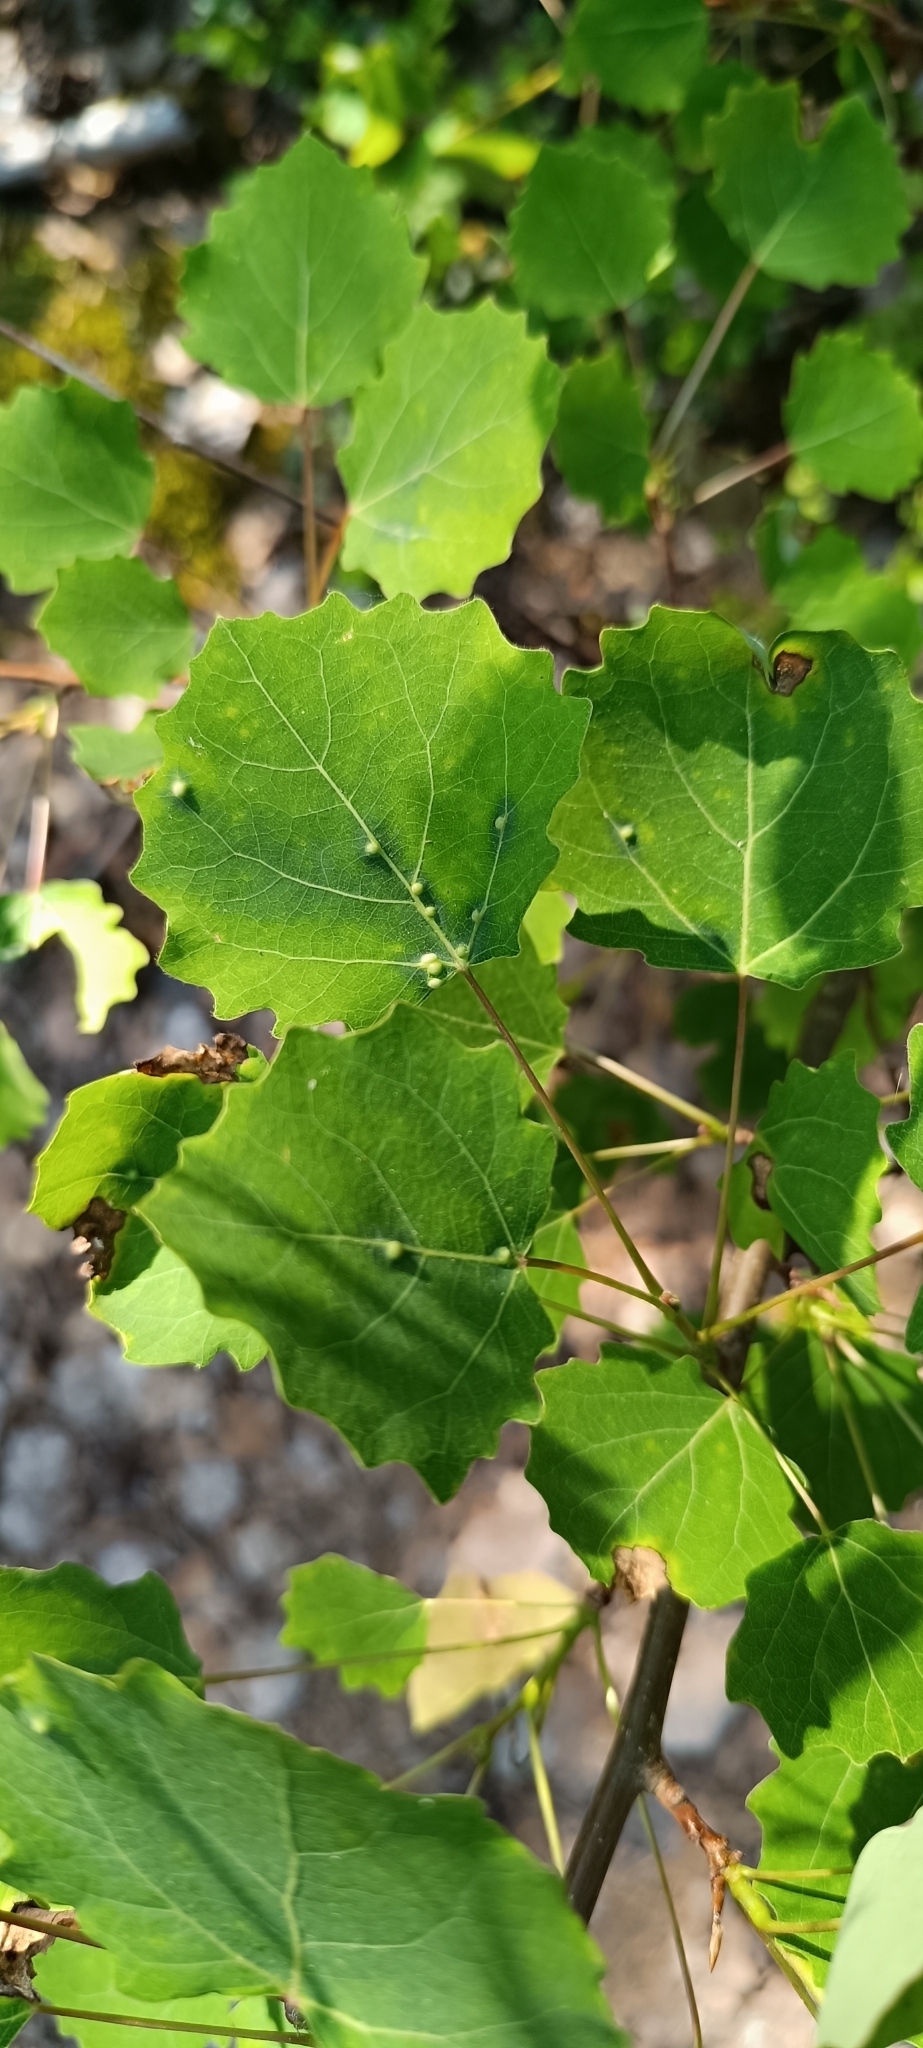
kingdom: Plantae
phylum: Tracheophyta
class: Magnoliopsida
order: Malpighiales
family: Salicaceae
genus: Populus
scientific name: Populus tremula
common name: European aspen
